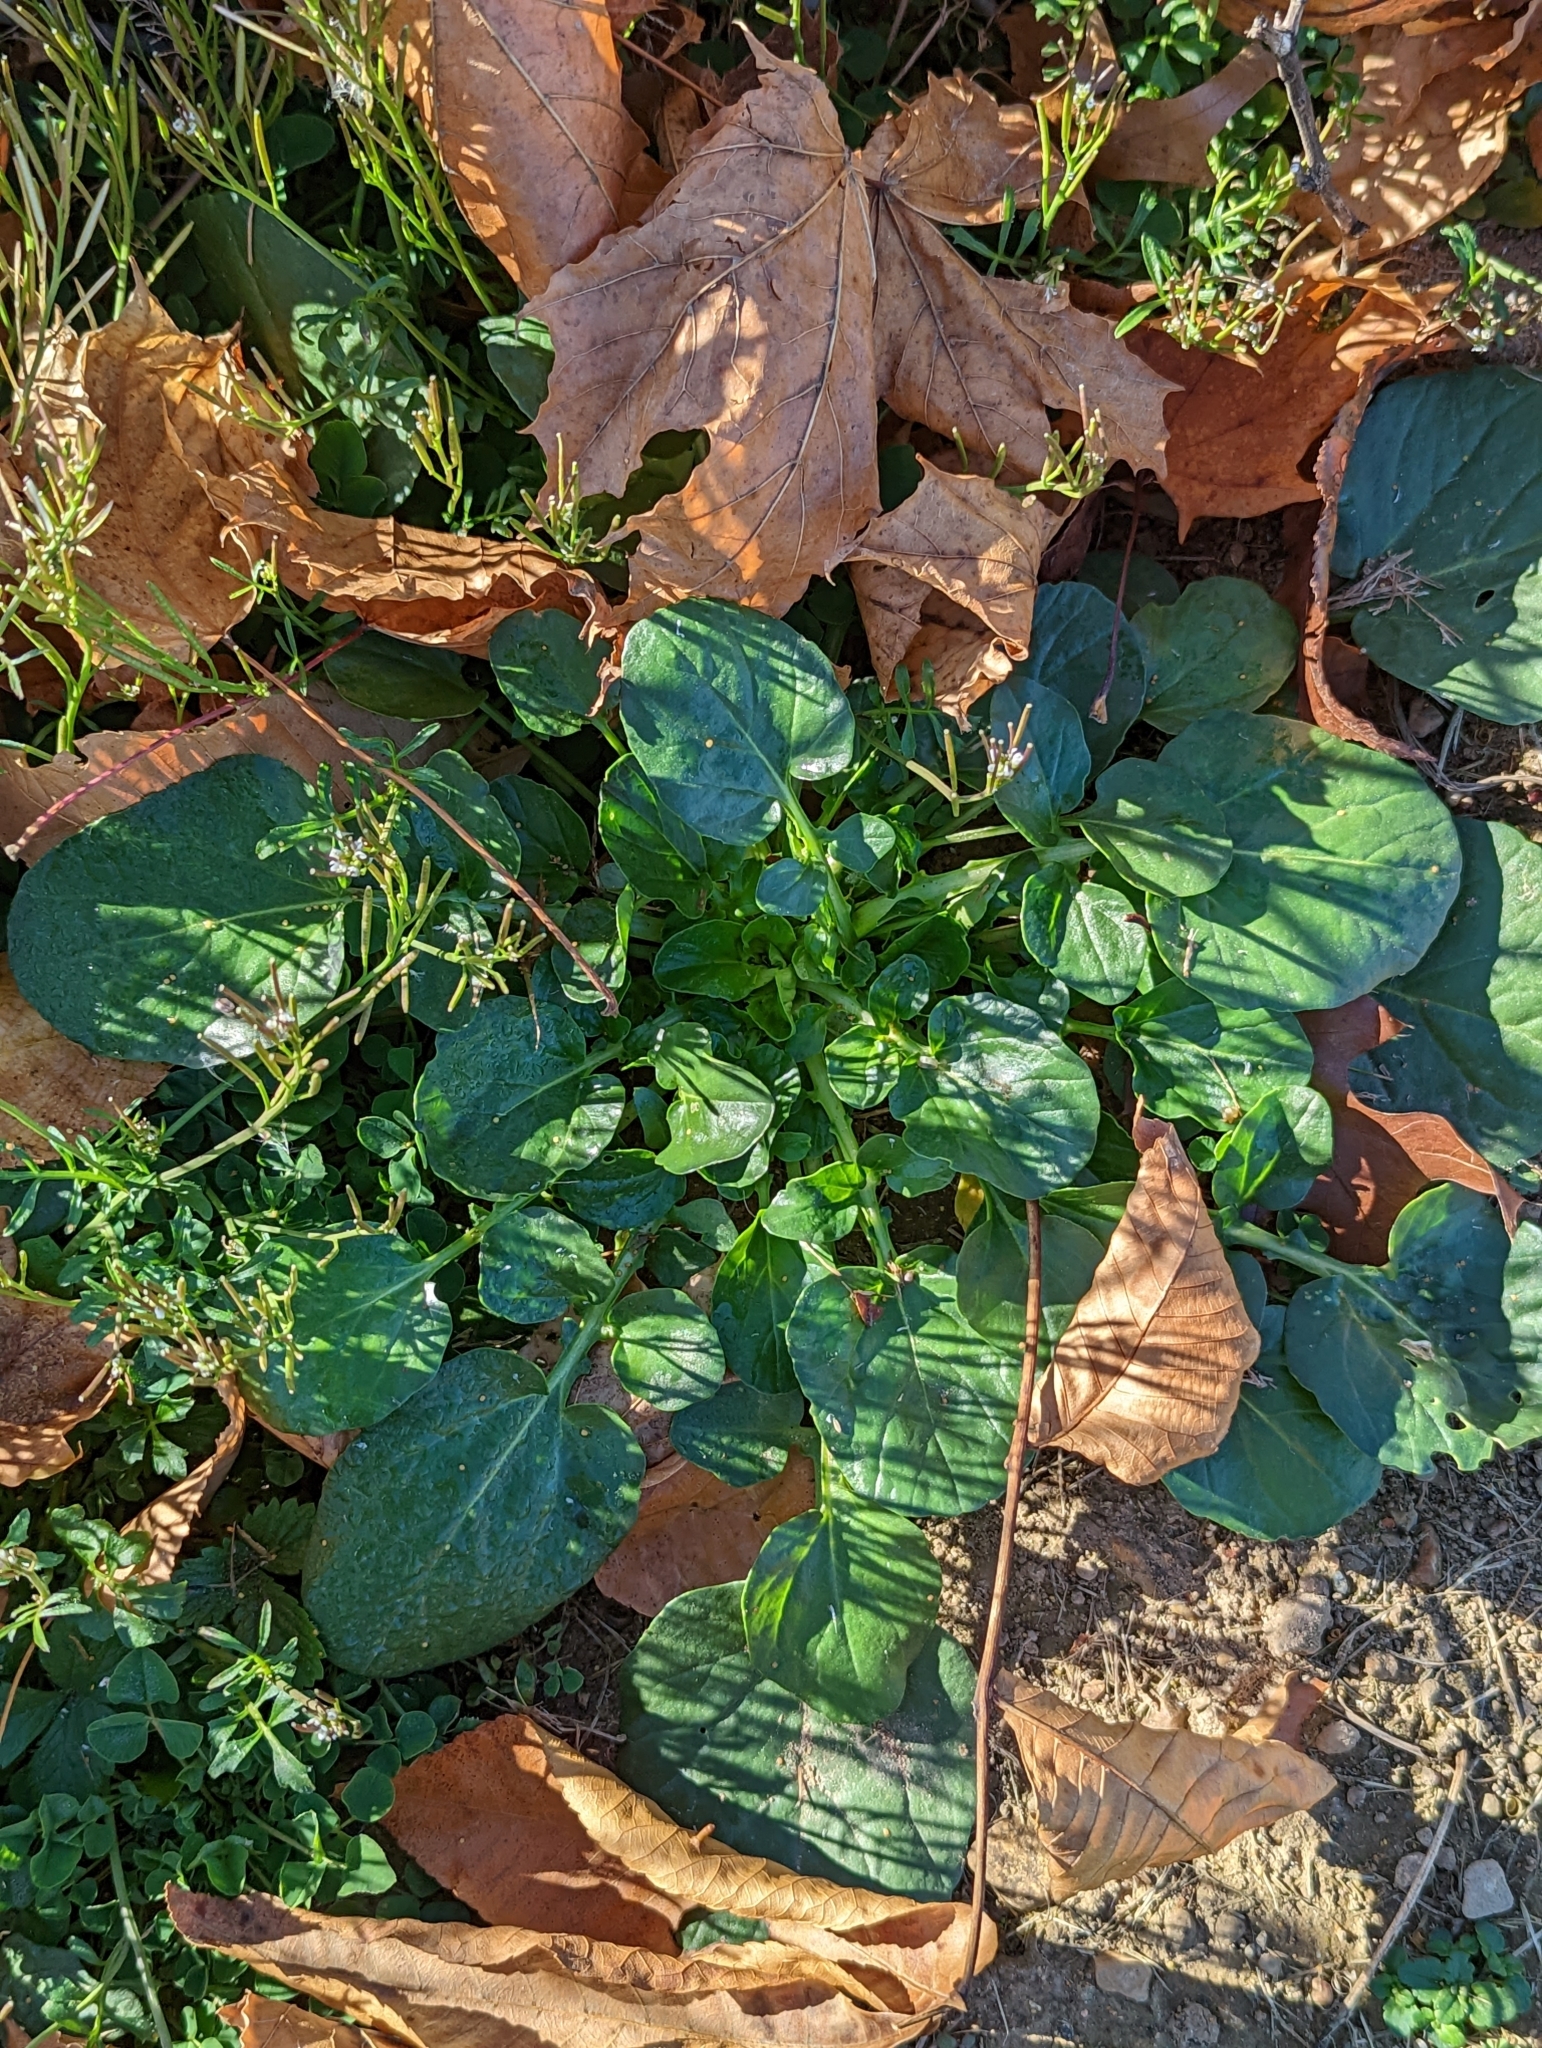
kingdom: Plantae
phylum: Tracheophyta
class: Magnoliopsida
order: Brassicales
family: Brassicaceae
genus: Barbarea
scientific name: Barbarea vulgaris
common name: Cressy-greens
